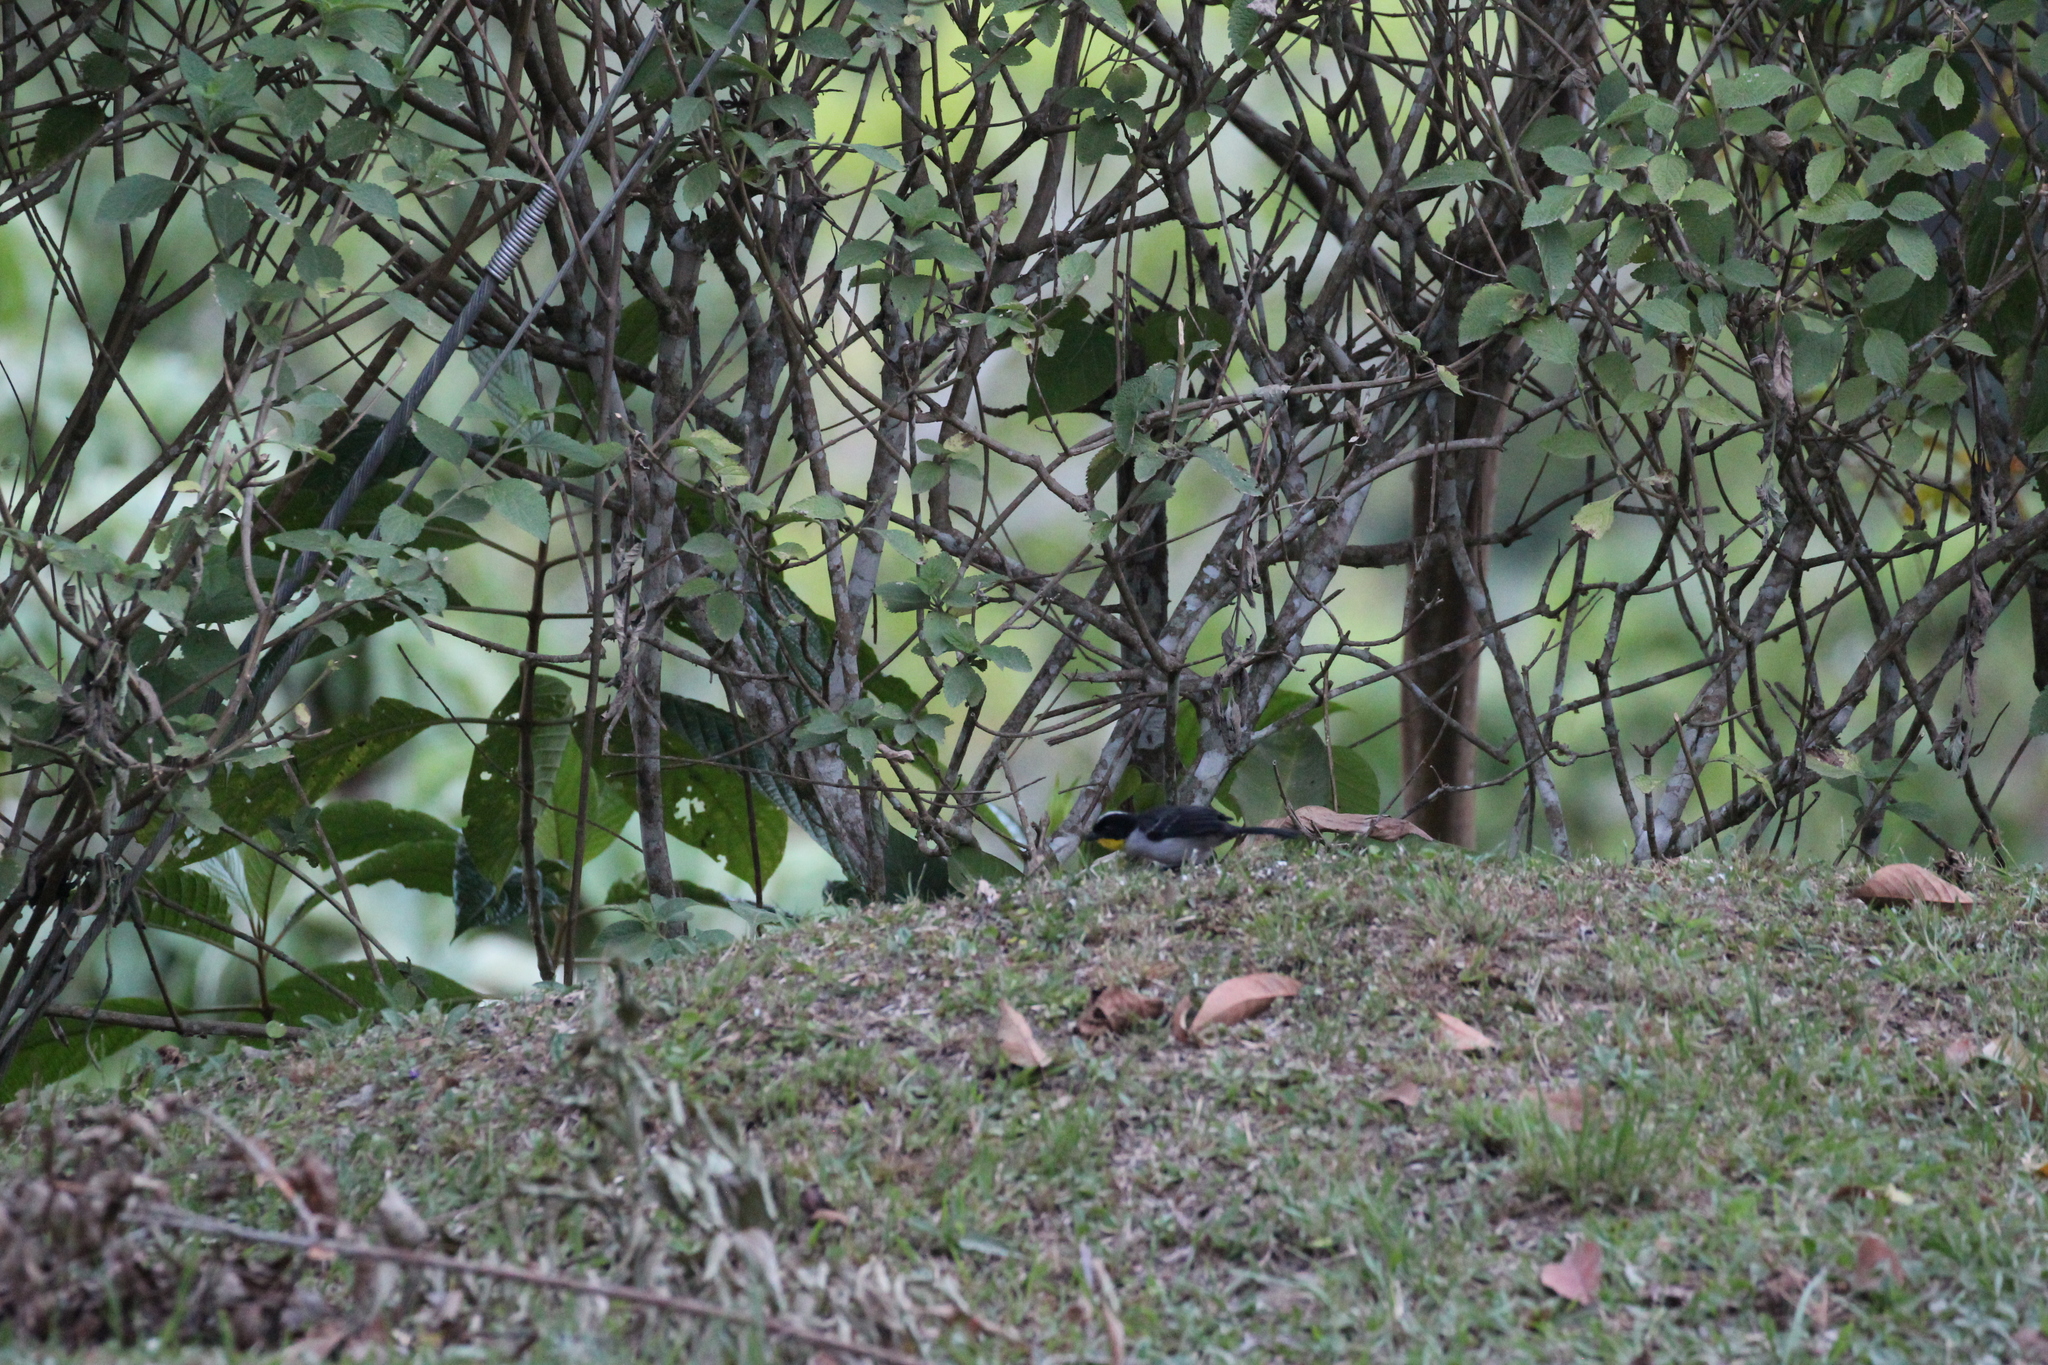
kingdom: Animalia
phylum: Chordata
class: Aves
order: Passeriformes
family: Passerellidae
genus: Atlapetes
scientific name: Atlapetes albinucha
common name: White-naped brush-finch
